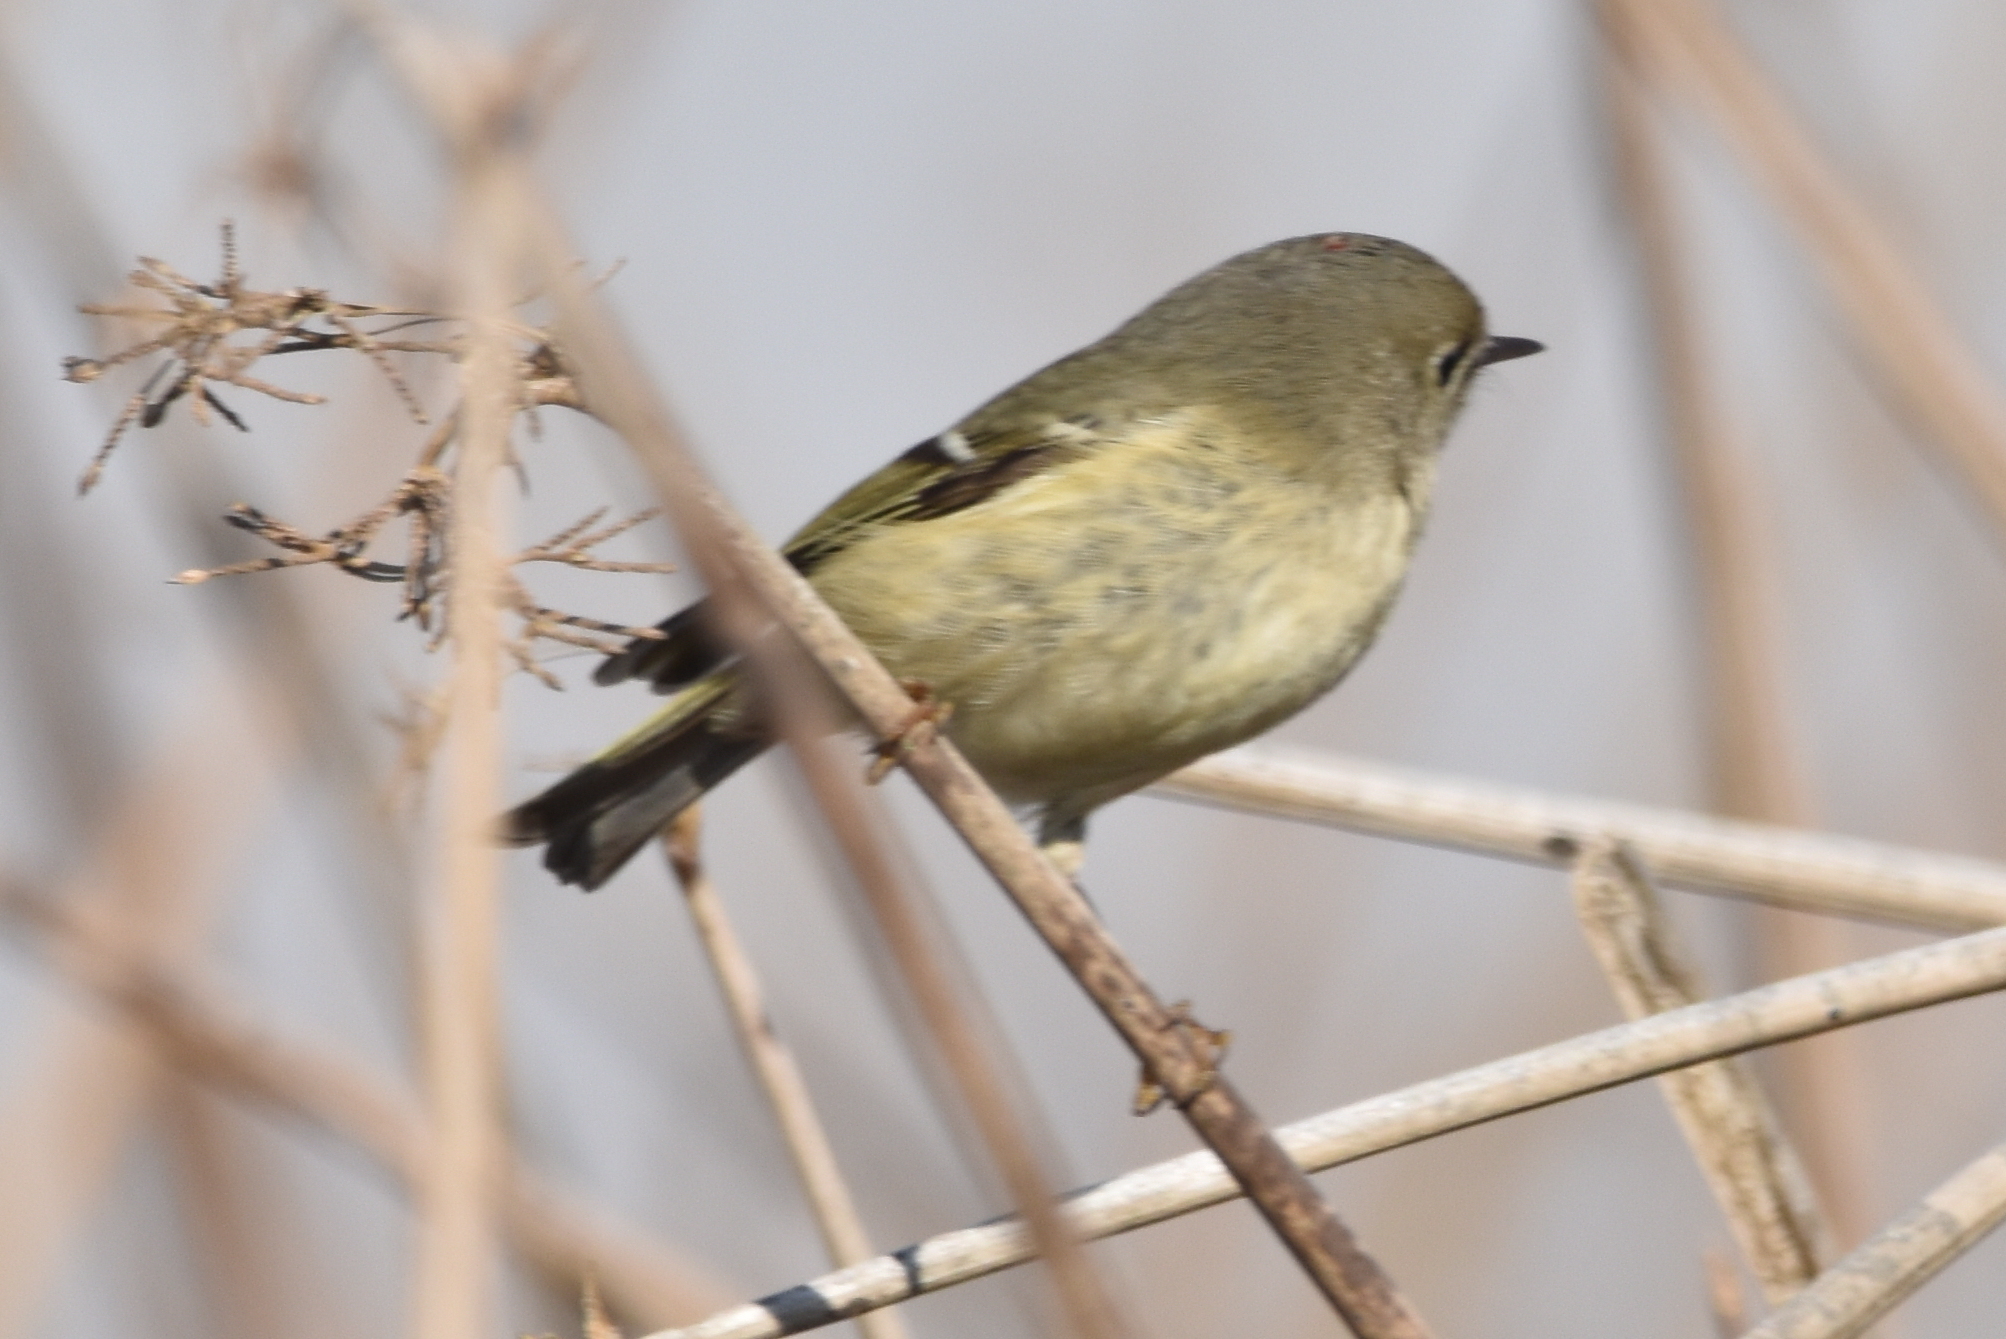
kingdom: Animalia
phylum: Chordata
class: Aves
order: Passeriformes
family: Regulidae
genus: Regulus
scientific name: Regulus calendula
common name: Ruby-crowned kinglet
